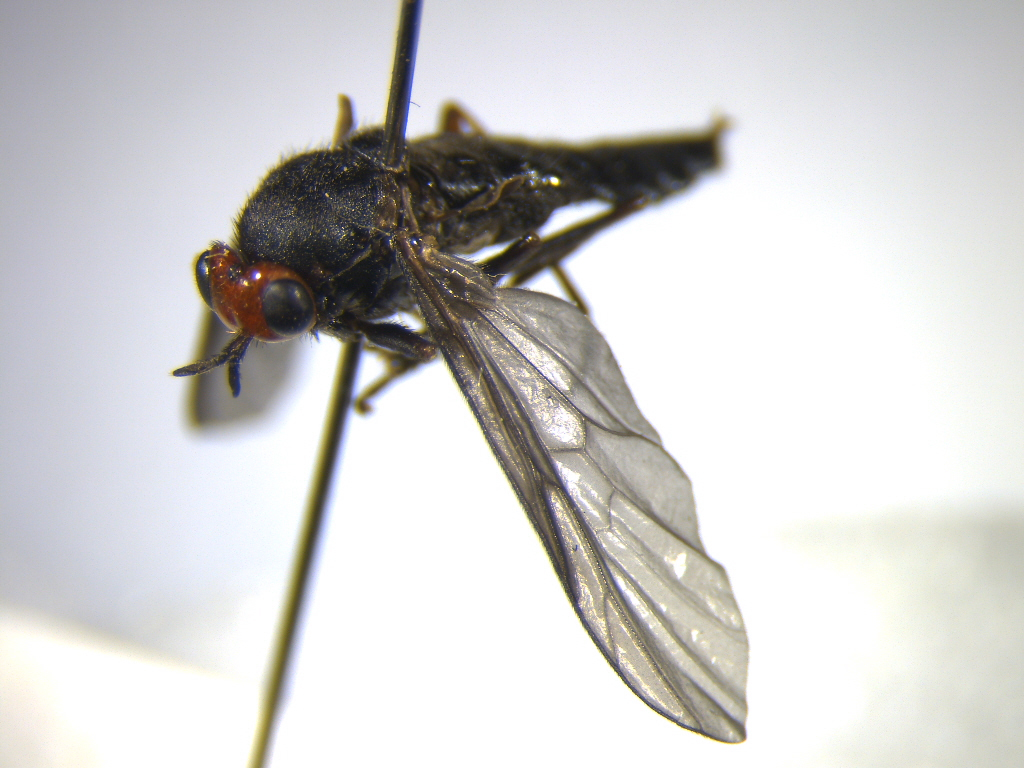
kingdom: Animalia
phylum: Arthropoda
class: Insecta
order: Diptera
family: Stratiomyidae
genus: Inopus
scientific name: Inopus rubriceps
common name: Soldier fly
